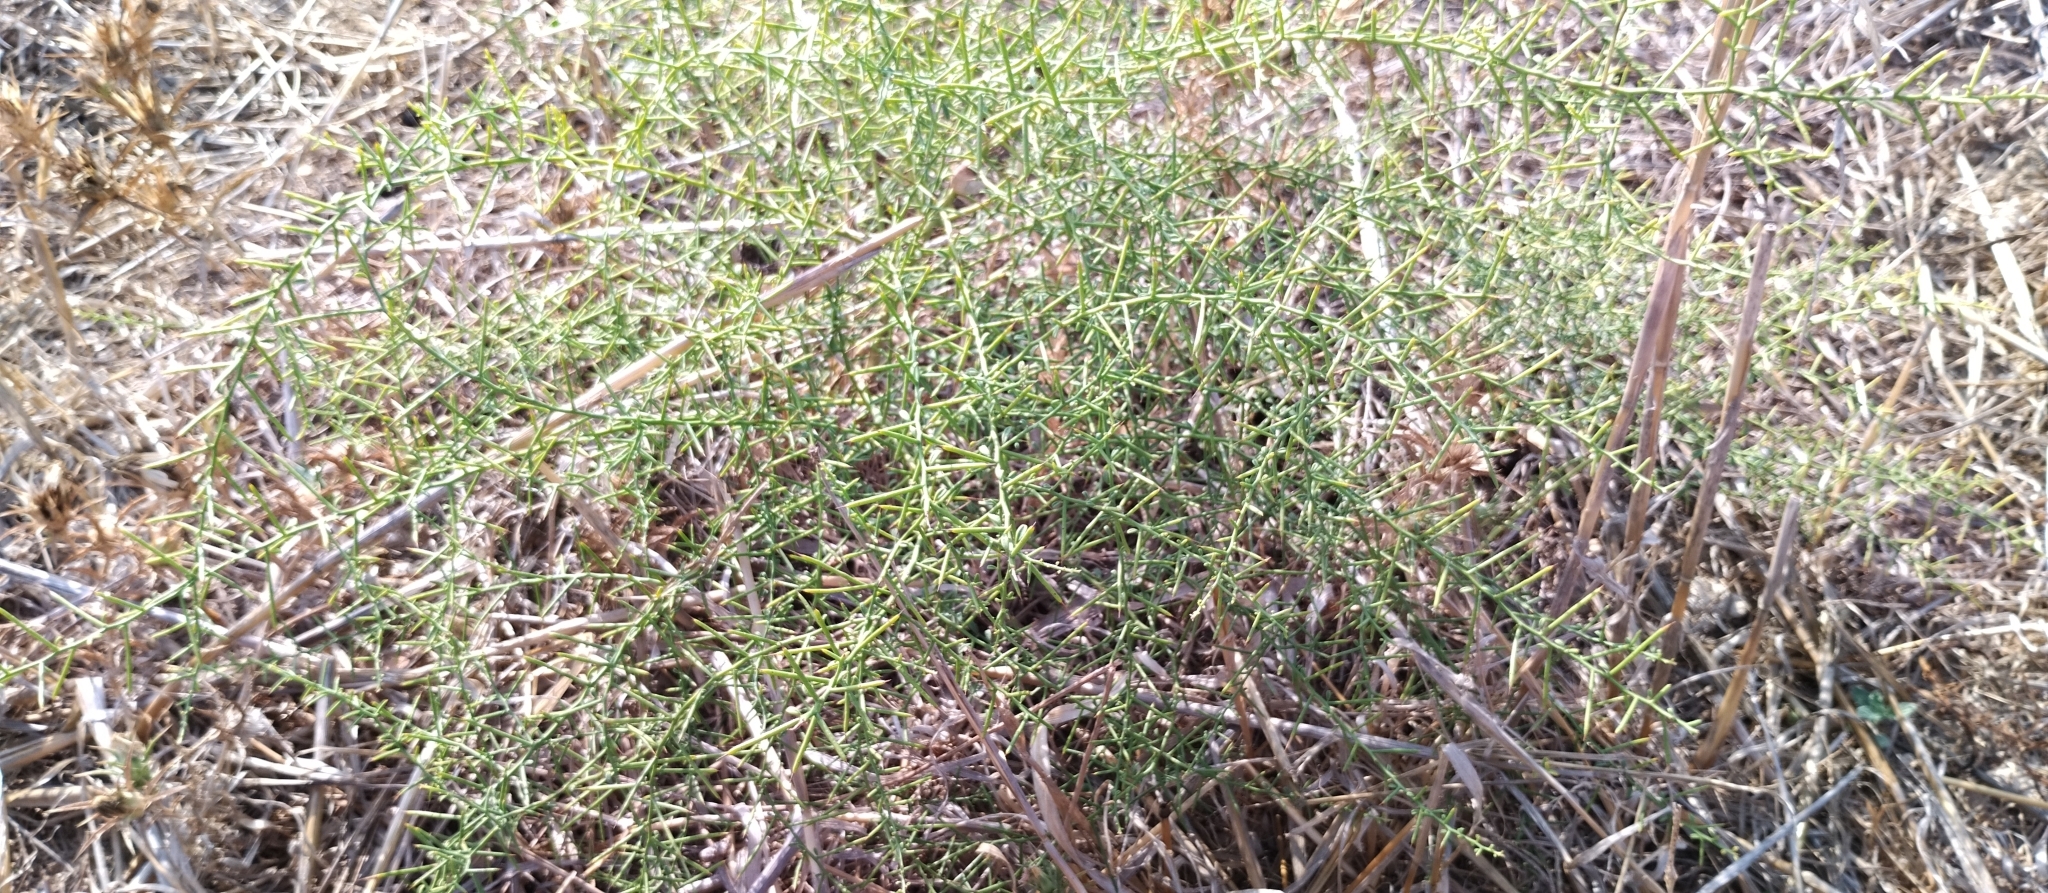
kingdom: Plantae
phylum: Tracheophyta
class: Magnoliopsida
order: Fabales
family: Fabaceae
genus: Alhagi
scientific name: Alhagi graecorum
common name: Persian mannaplant
